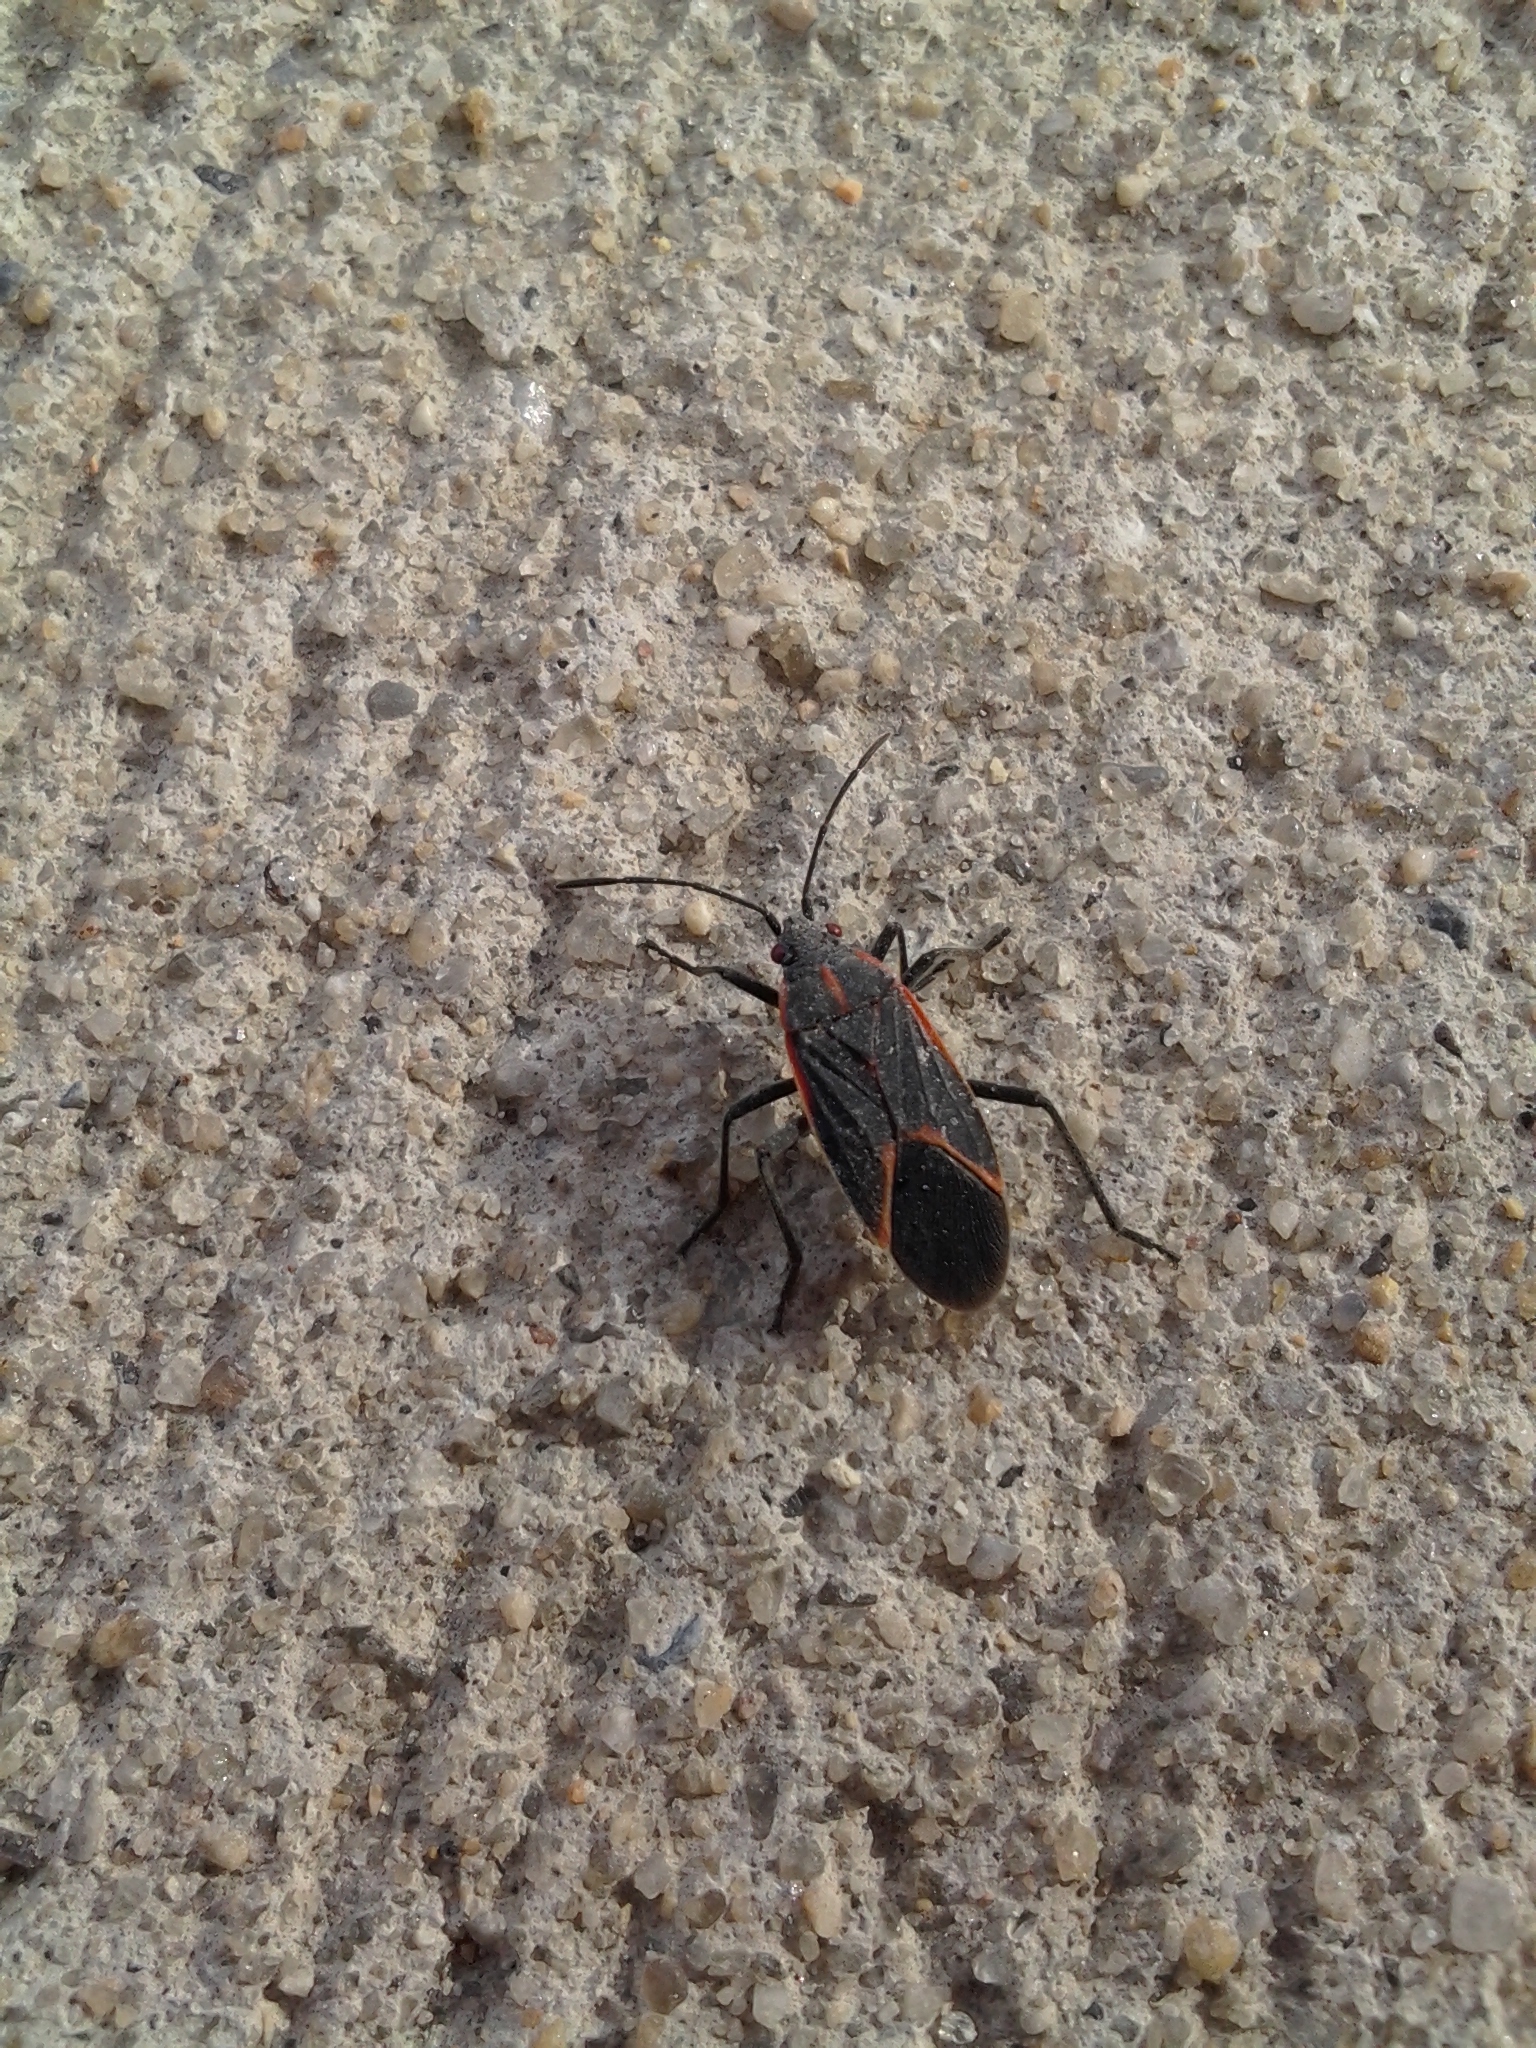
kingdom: Animalia
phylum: Arthropoda
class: Insecta
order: Hemiptera
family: Rhopalidae
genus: Boisea
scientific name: Boisea trivittata
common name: Boxelder bug
